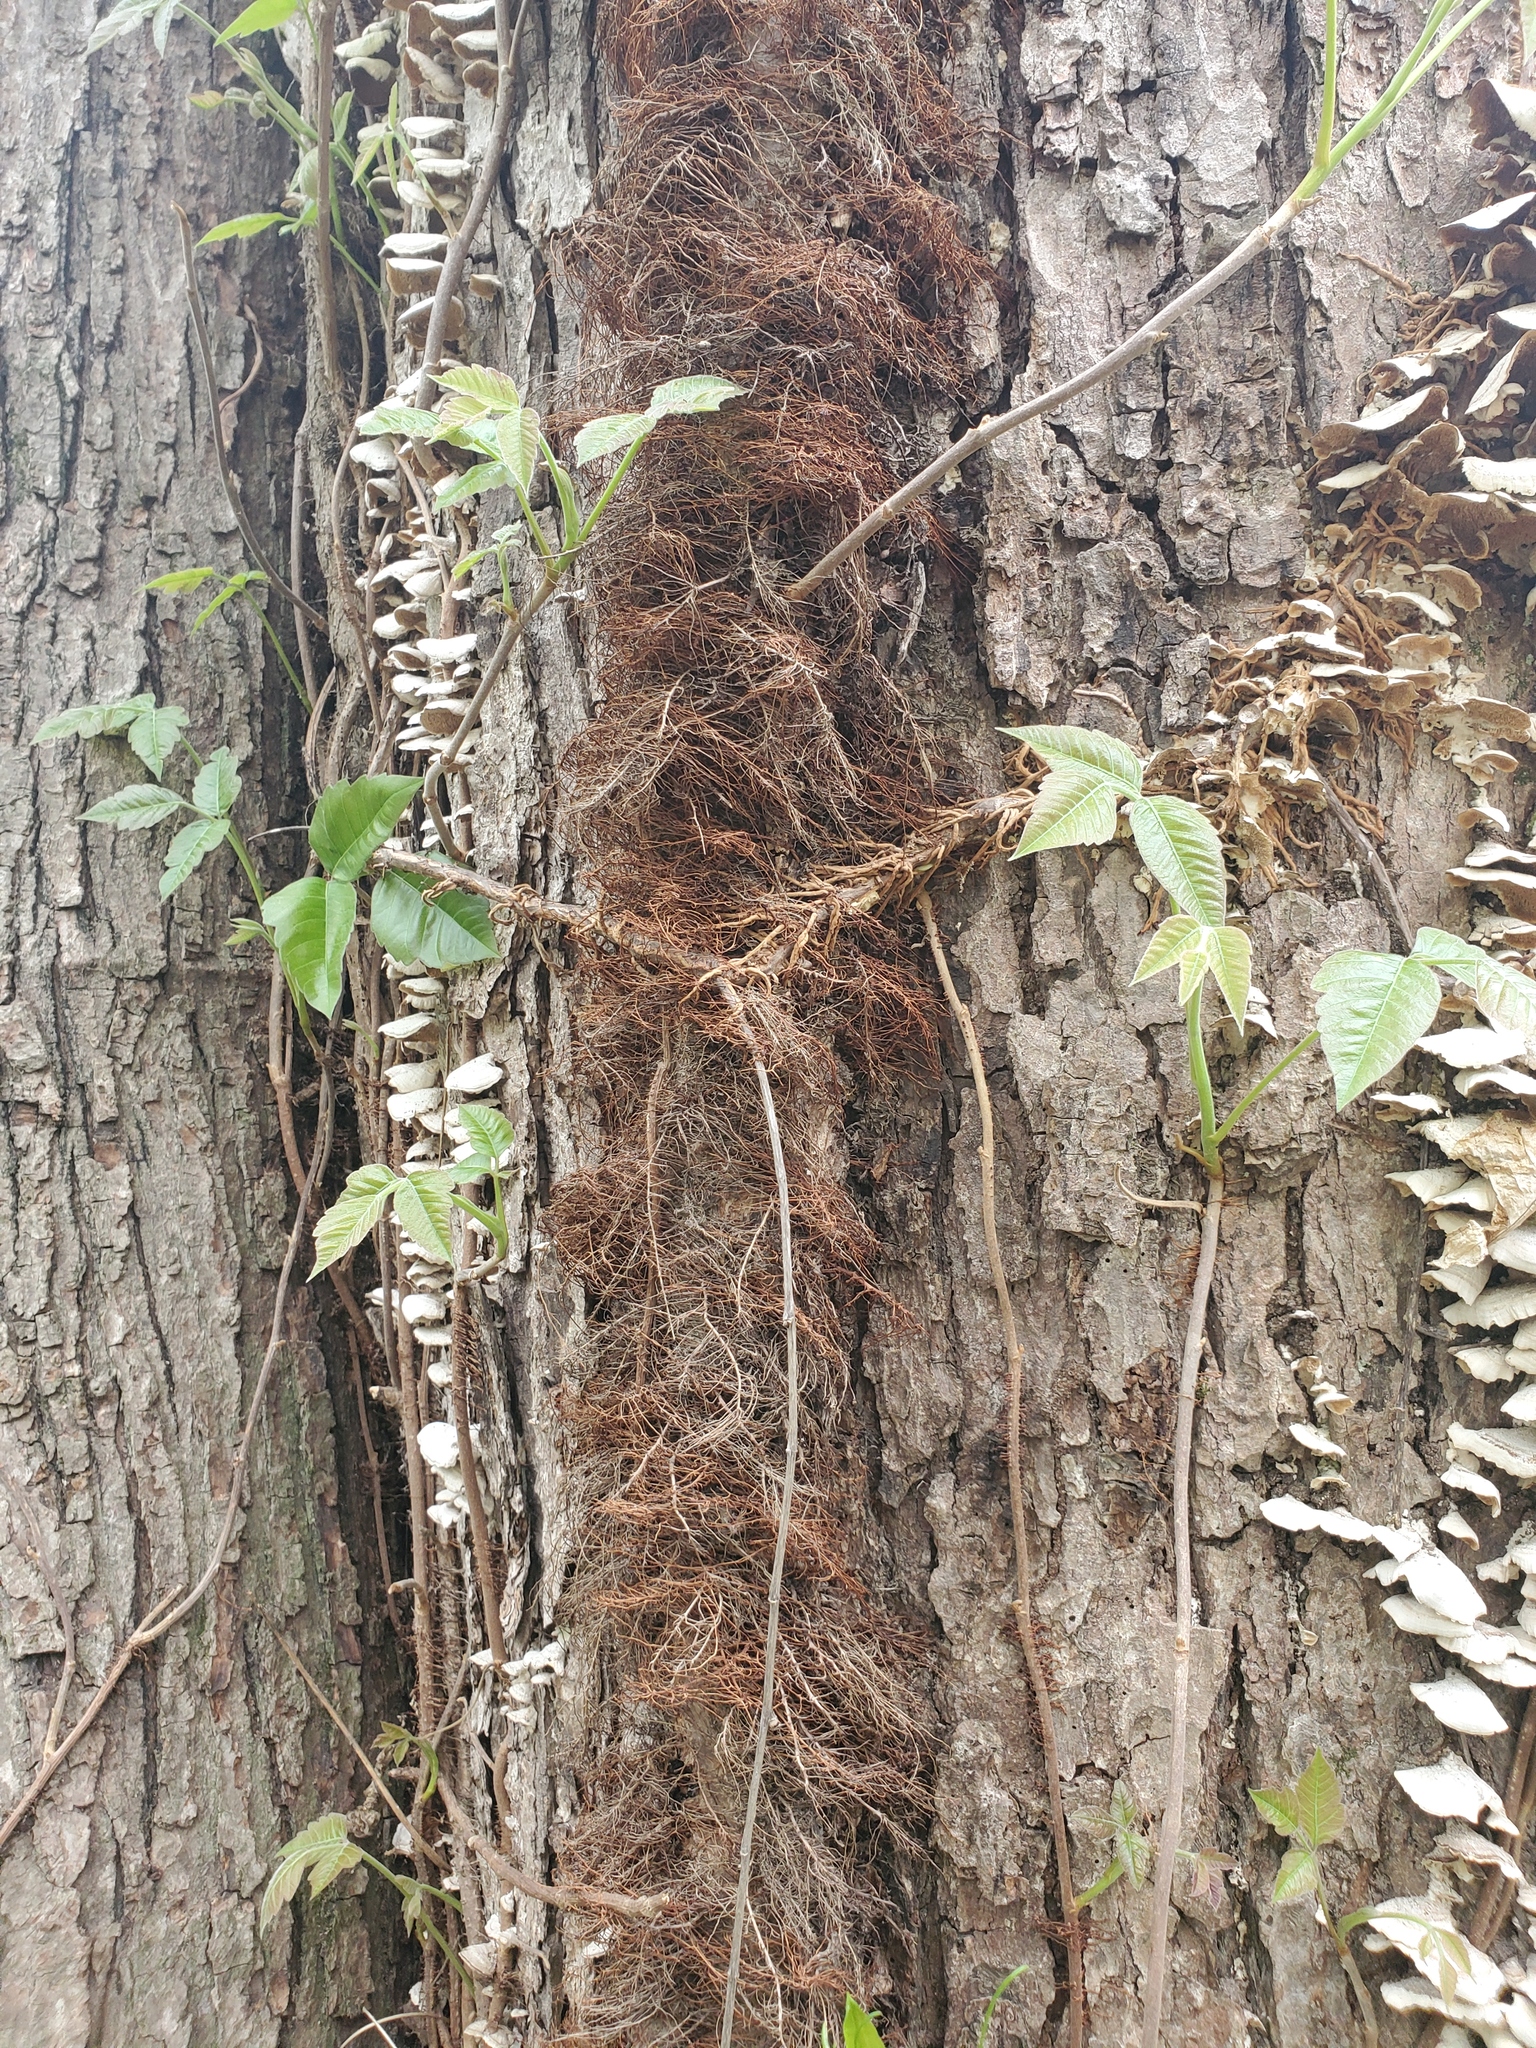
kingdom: Plantae
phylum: Tracheophyta
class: Magnoliopsida
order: Sapindales
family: Anacardiaceae
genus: Toxicodendron
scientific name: Toxicodendron radicans
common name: Poison ivy
